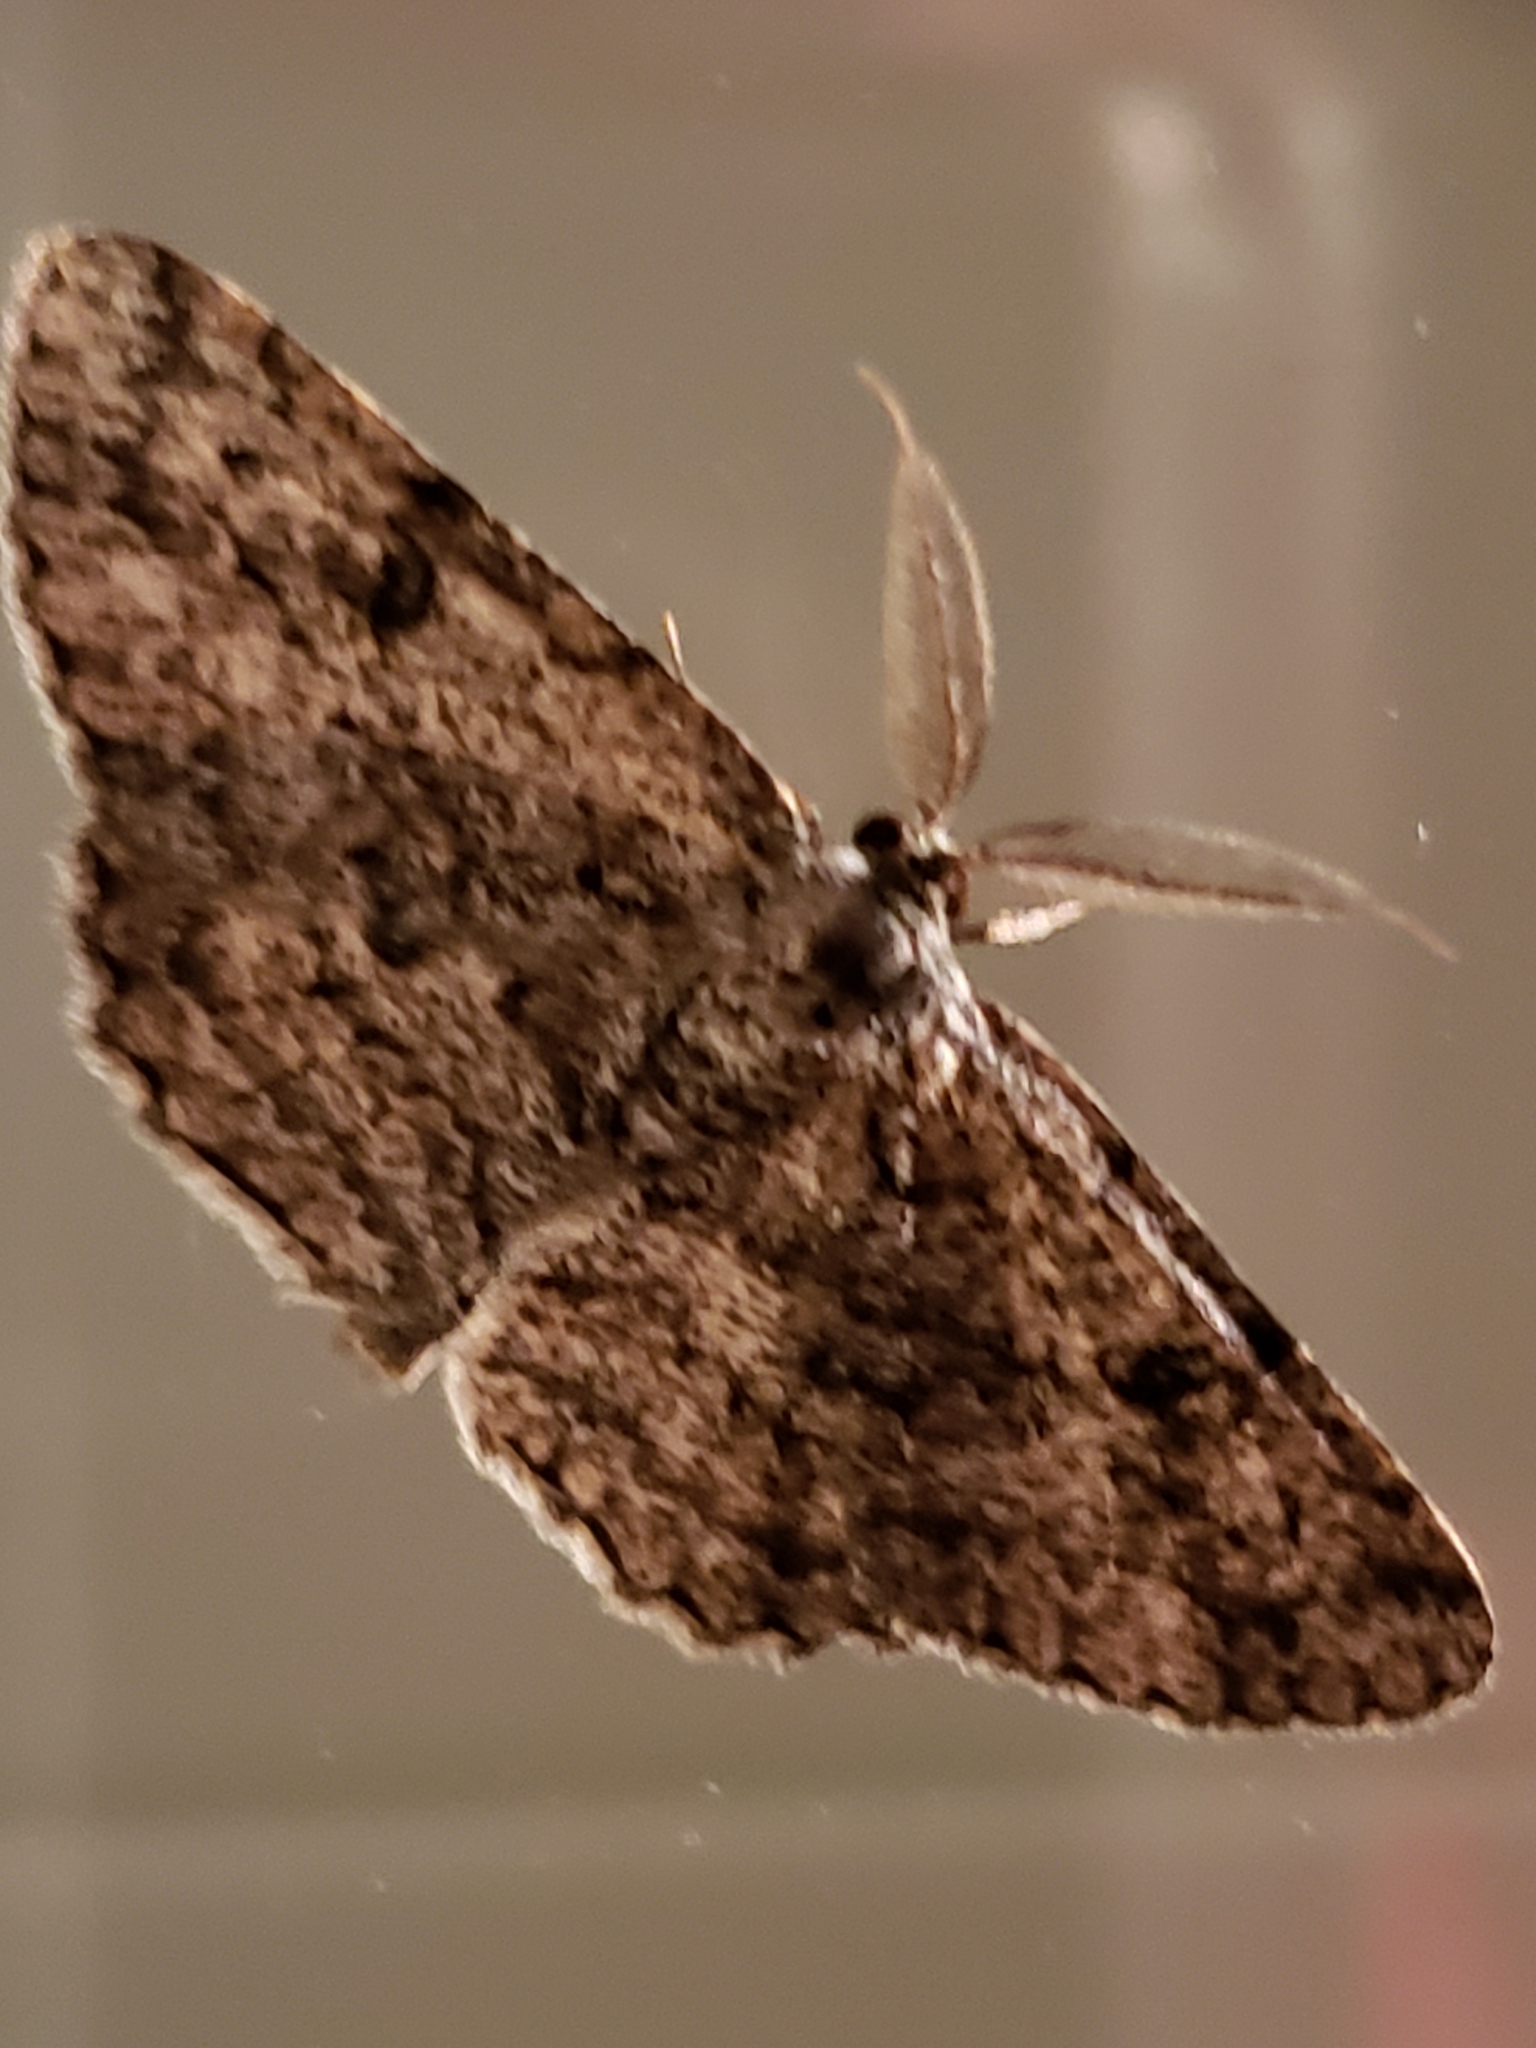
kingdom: Animalia
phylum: Arthropoda
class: Insecta
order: Lepidoptera
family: Geometridae
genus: Hypomecis
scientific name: Hypomecis umbrosaria
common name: Umber moth
